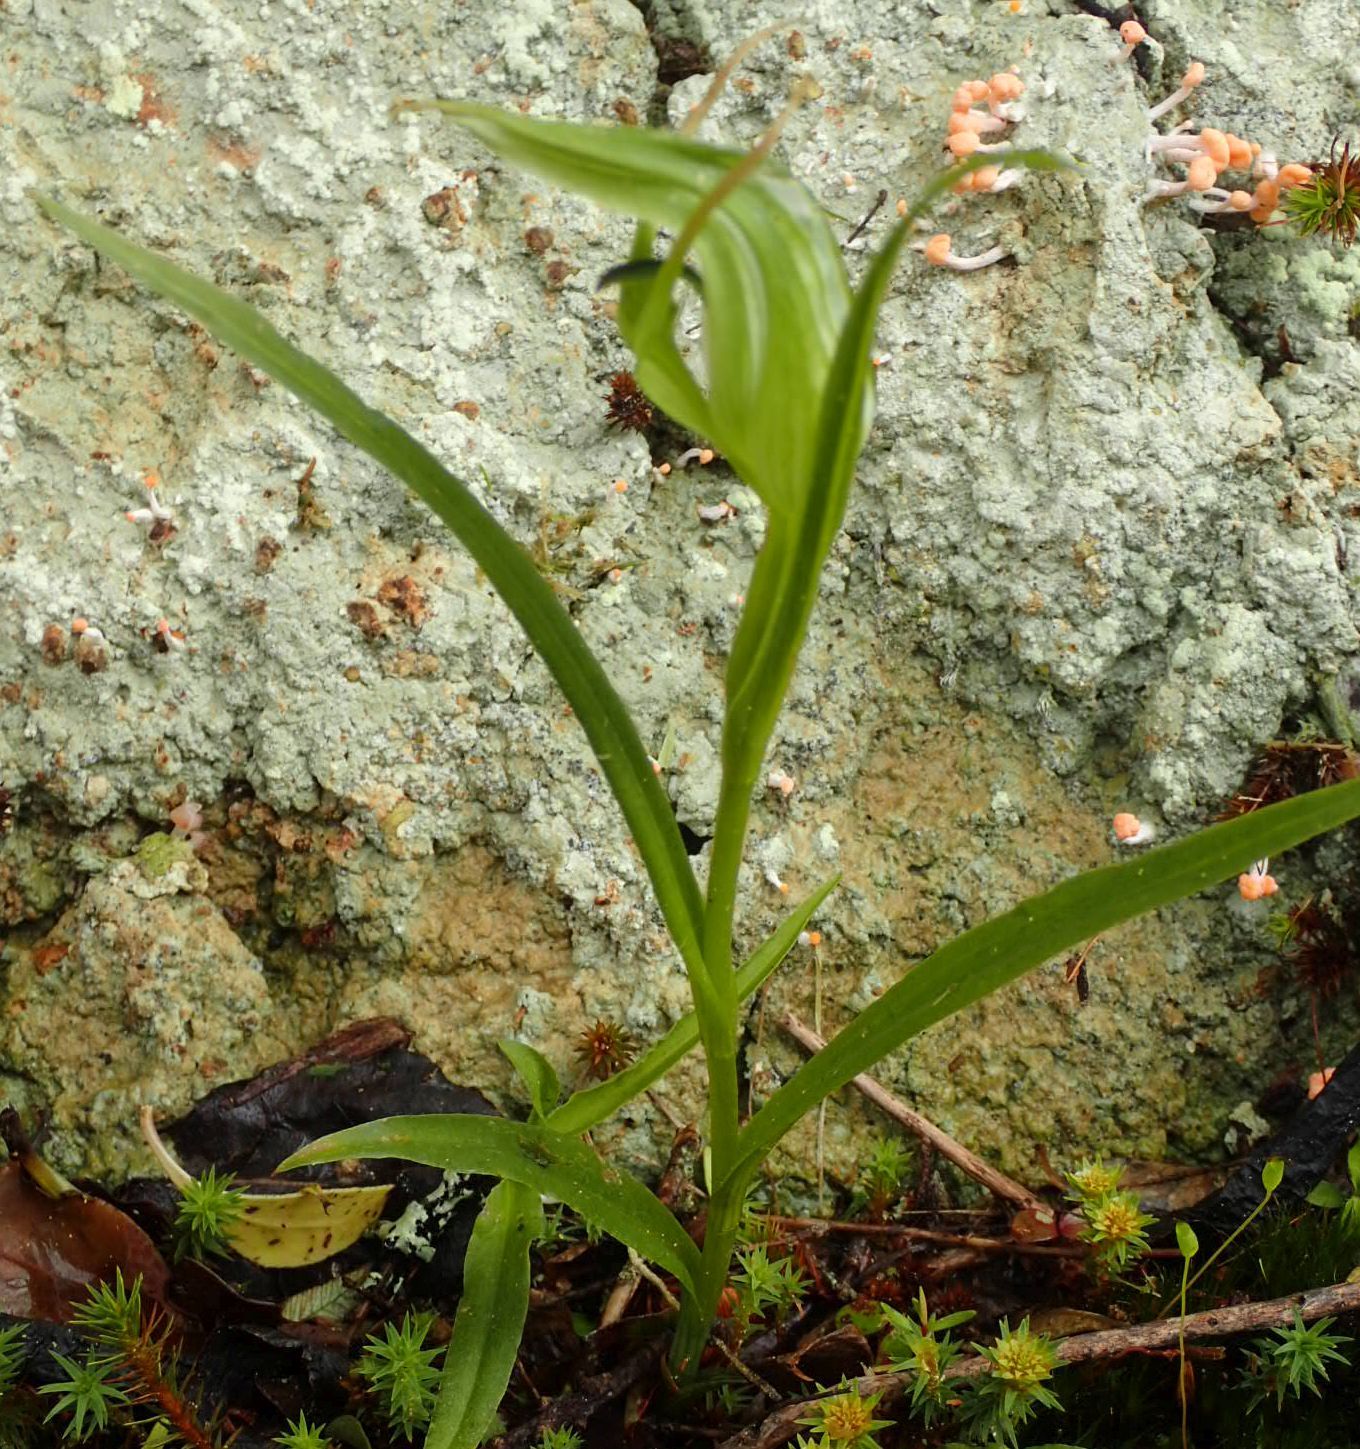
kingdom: Plantae
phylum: Tracheophyta
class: Liliopsida
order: Asparagales
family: Orchidaceae
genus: Pterostylis
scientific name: Pterostylis graminea
